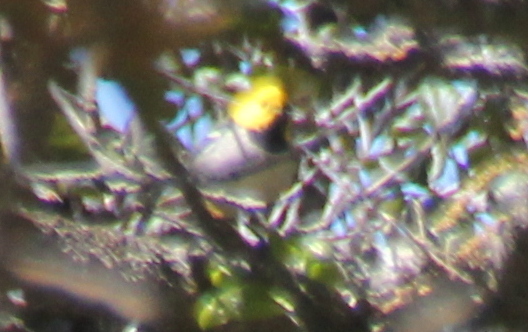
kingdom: Animalia
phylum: Chordata
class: Aves
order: Passeriformes
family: Parulidae
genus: Setophaga
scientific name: Setophaga occidentalis
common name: Hermit warbler
